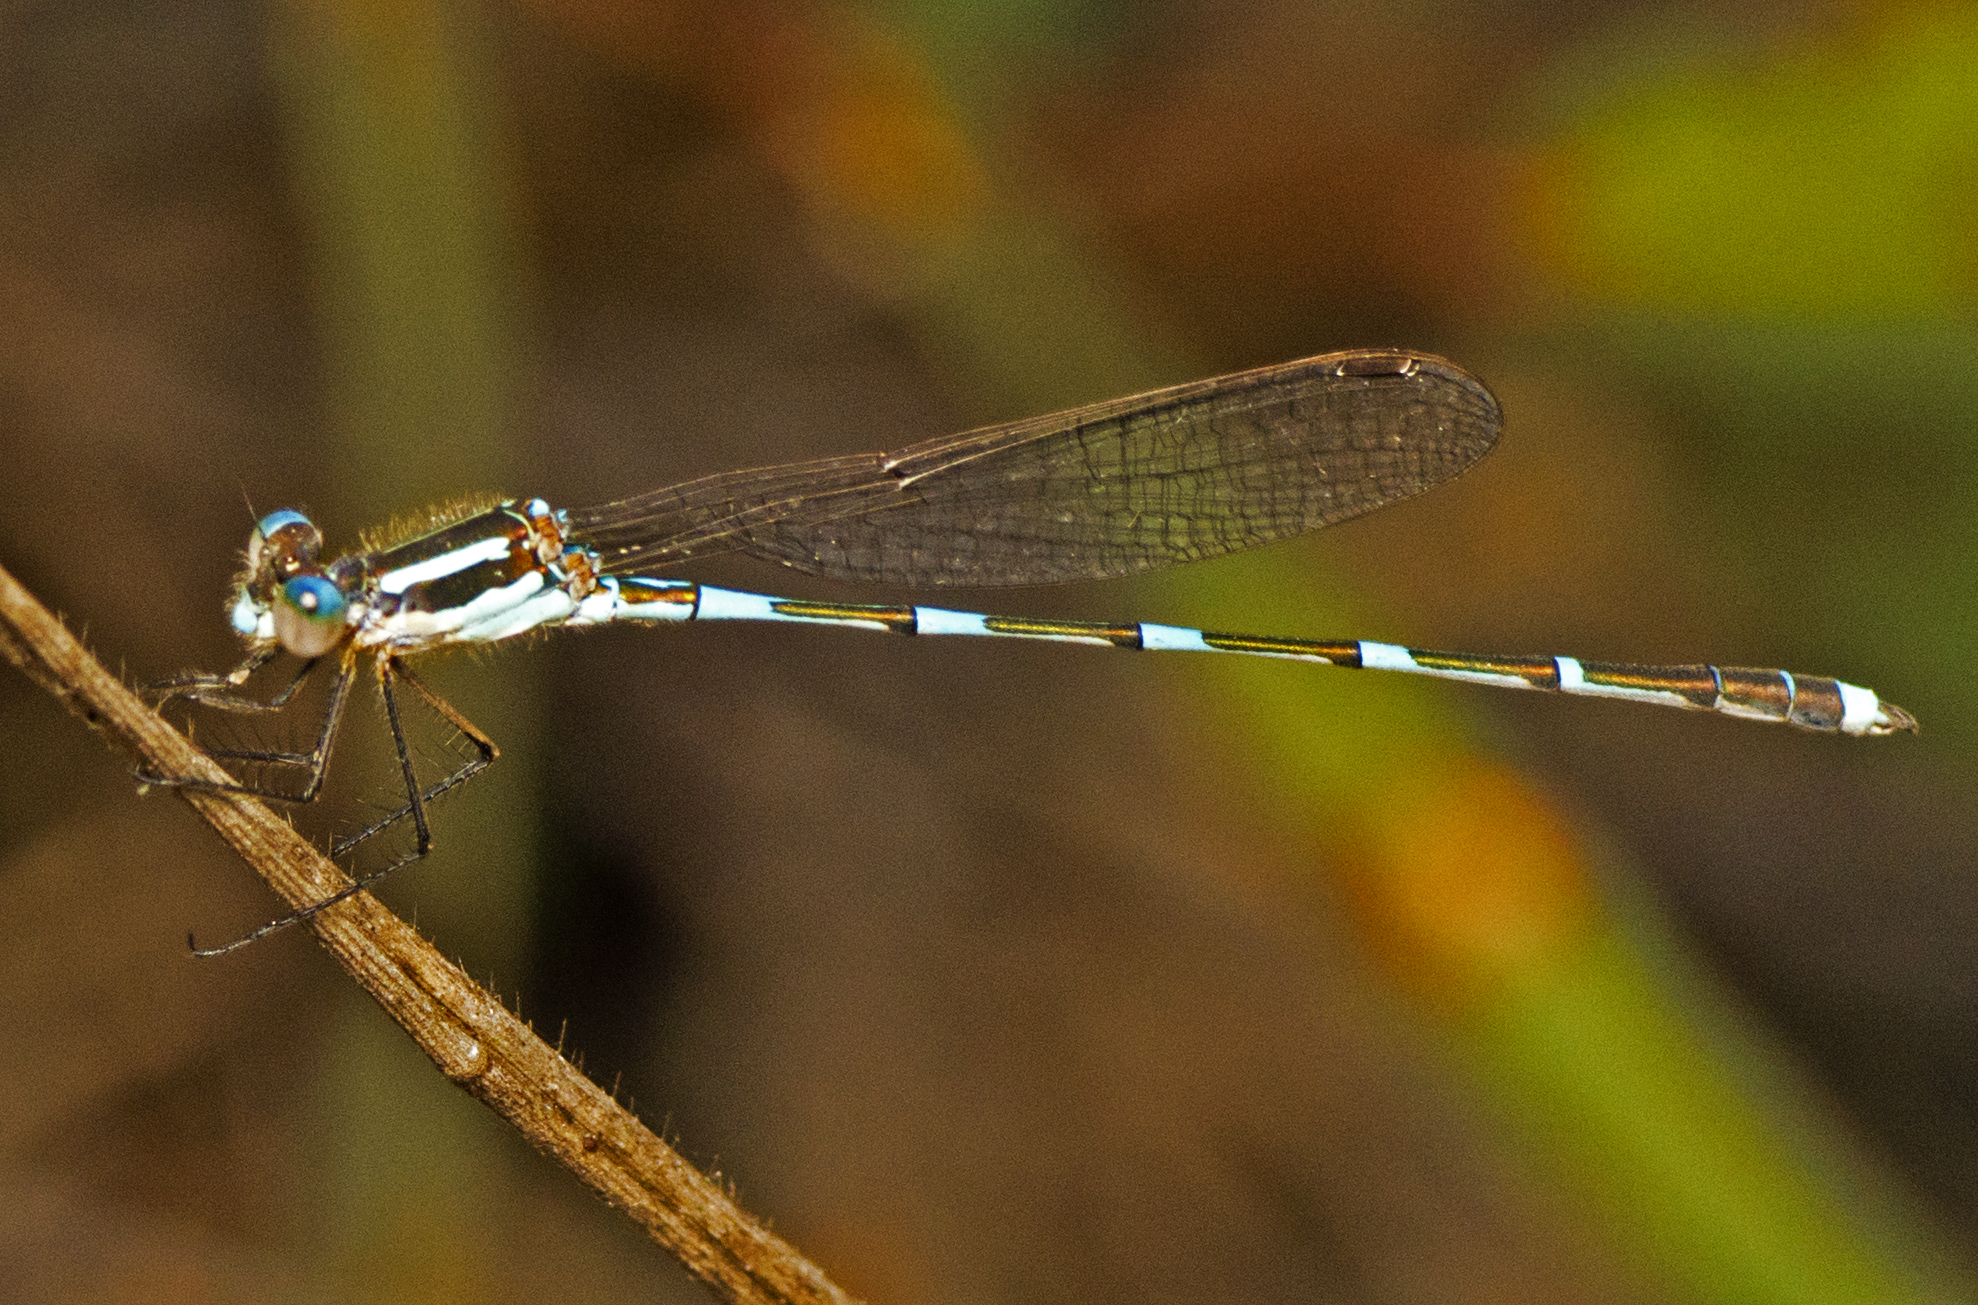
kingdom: Animalia
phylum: Arthropoda
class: Insecta
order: Odonata
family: Lestidae
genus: Austrolestes
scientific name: Austrolestes leda
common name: Wandering ringtail
